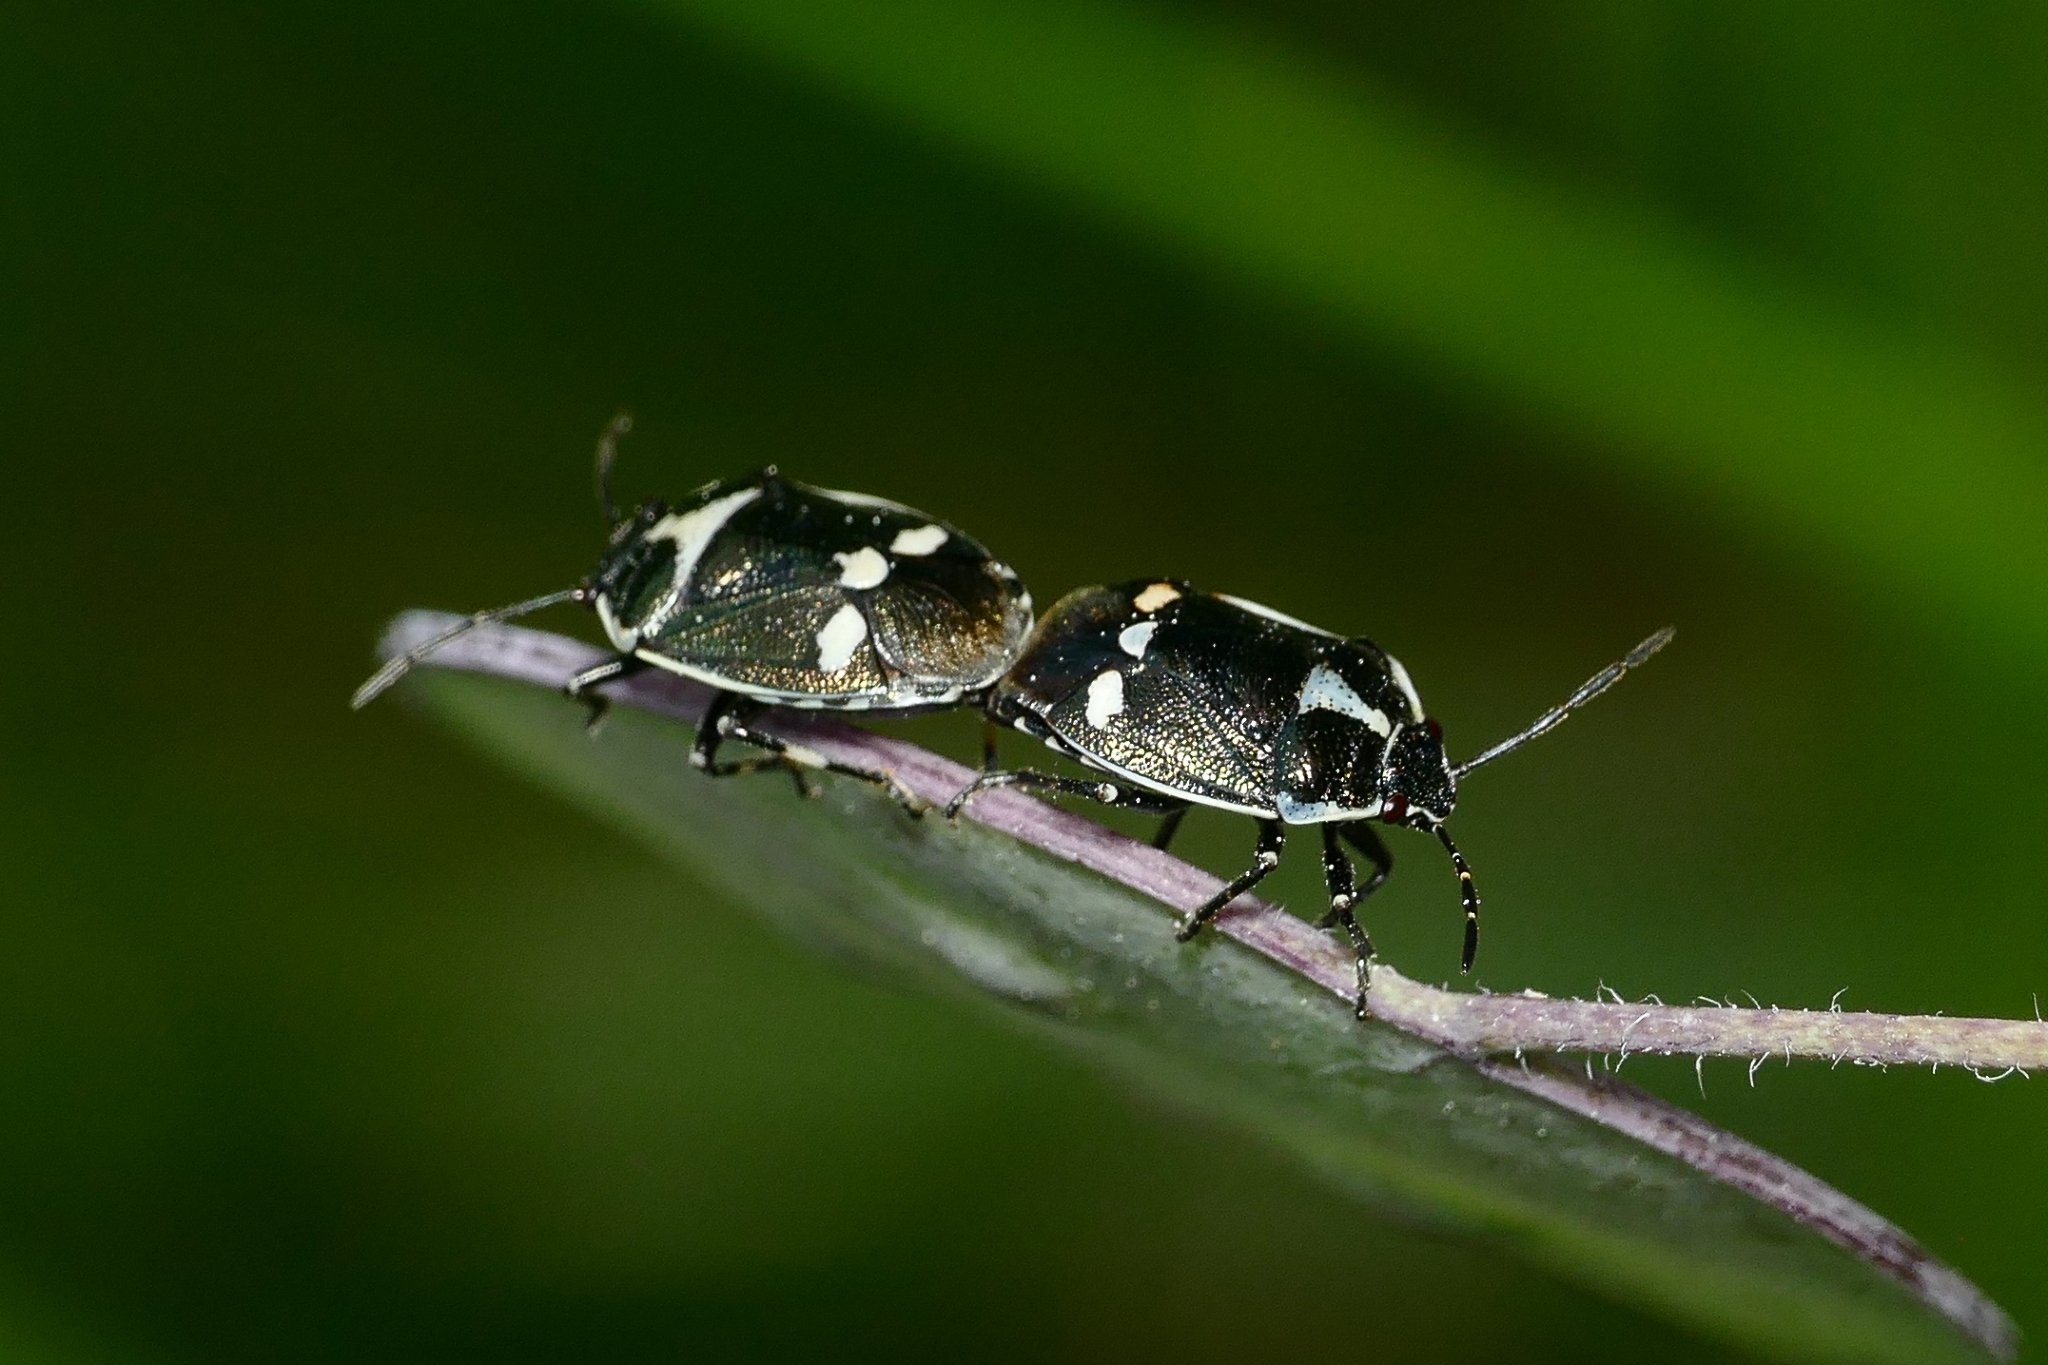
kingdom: Animalia
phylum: Arthropoda
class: Insecta
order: Hemiptera
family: Pentatomidae
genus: Eurydema
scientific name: Eurydema oleracea
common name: Cabbage bug
